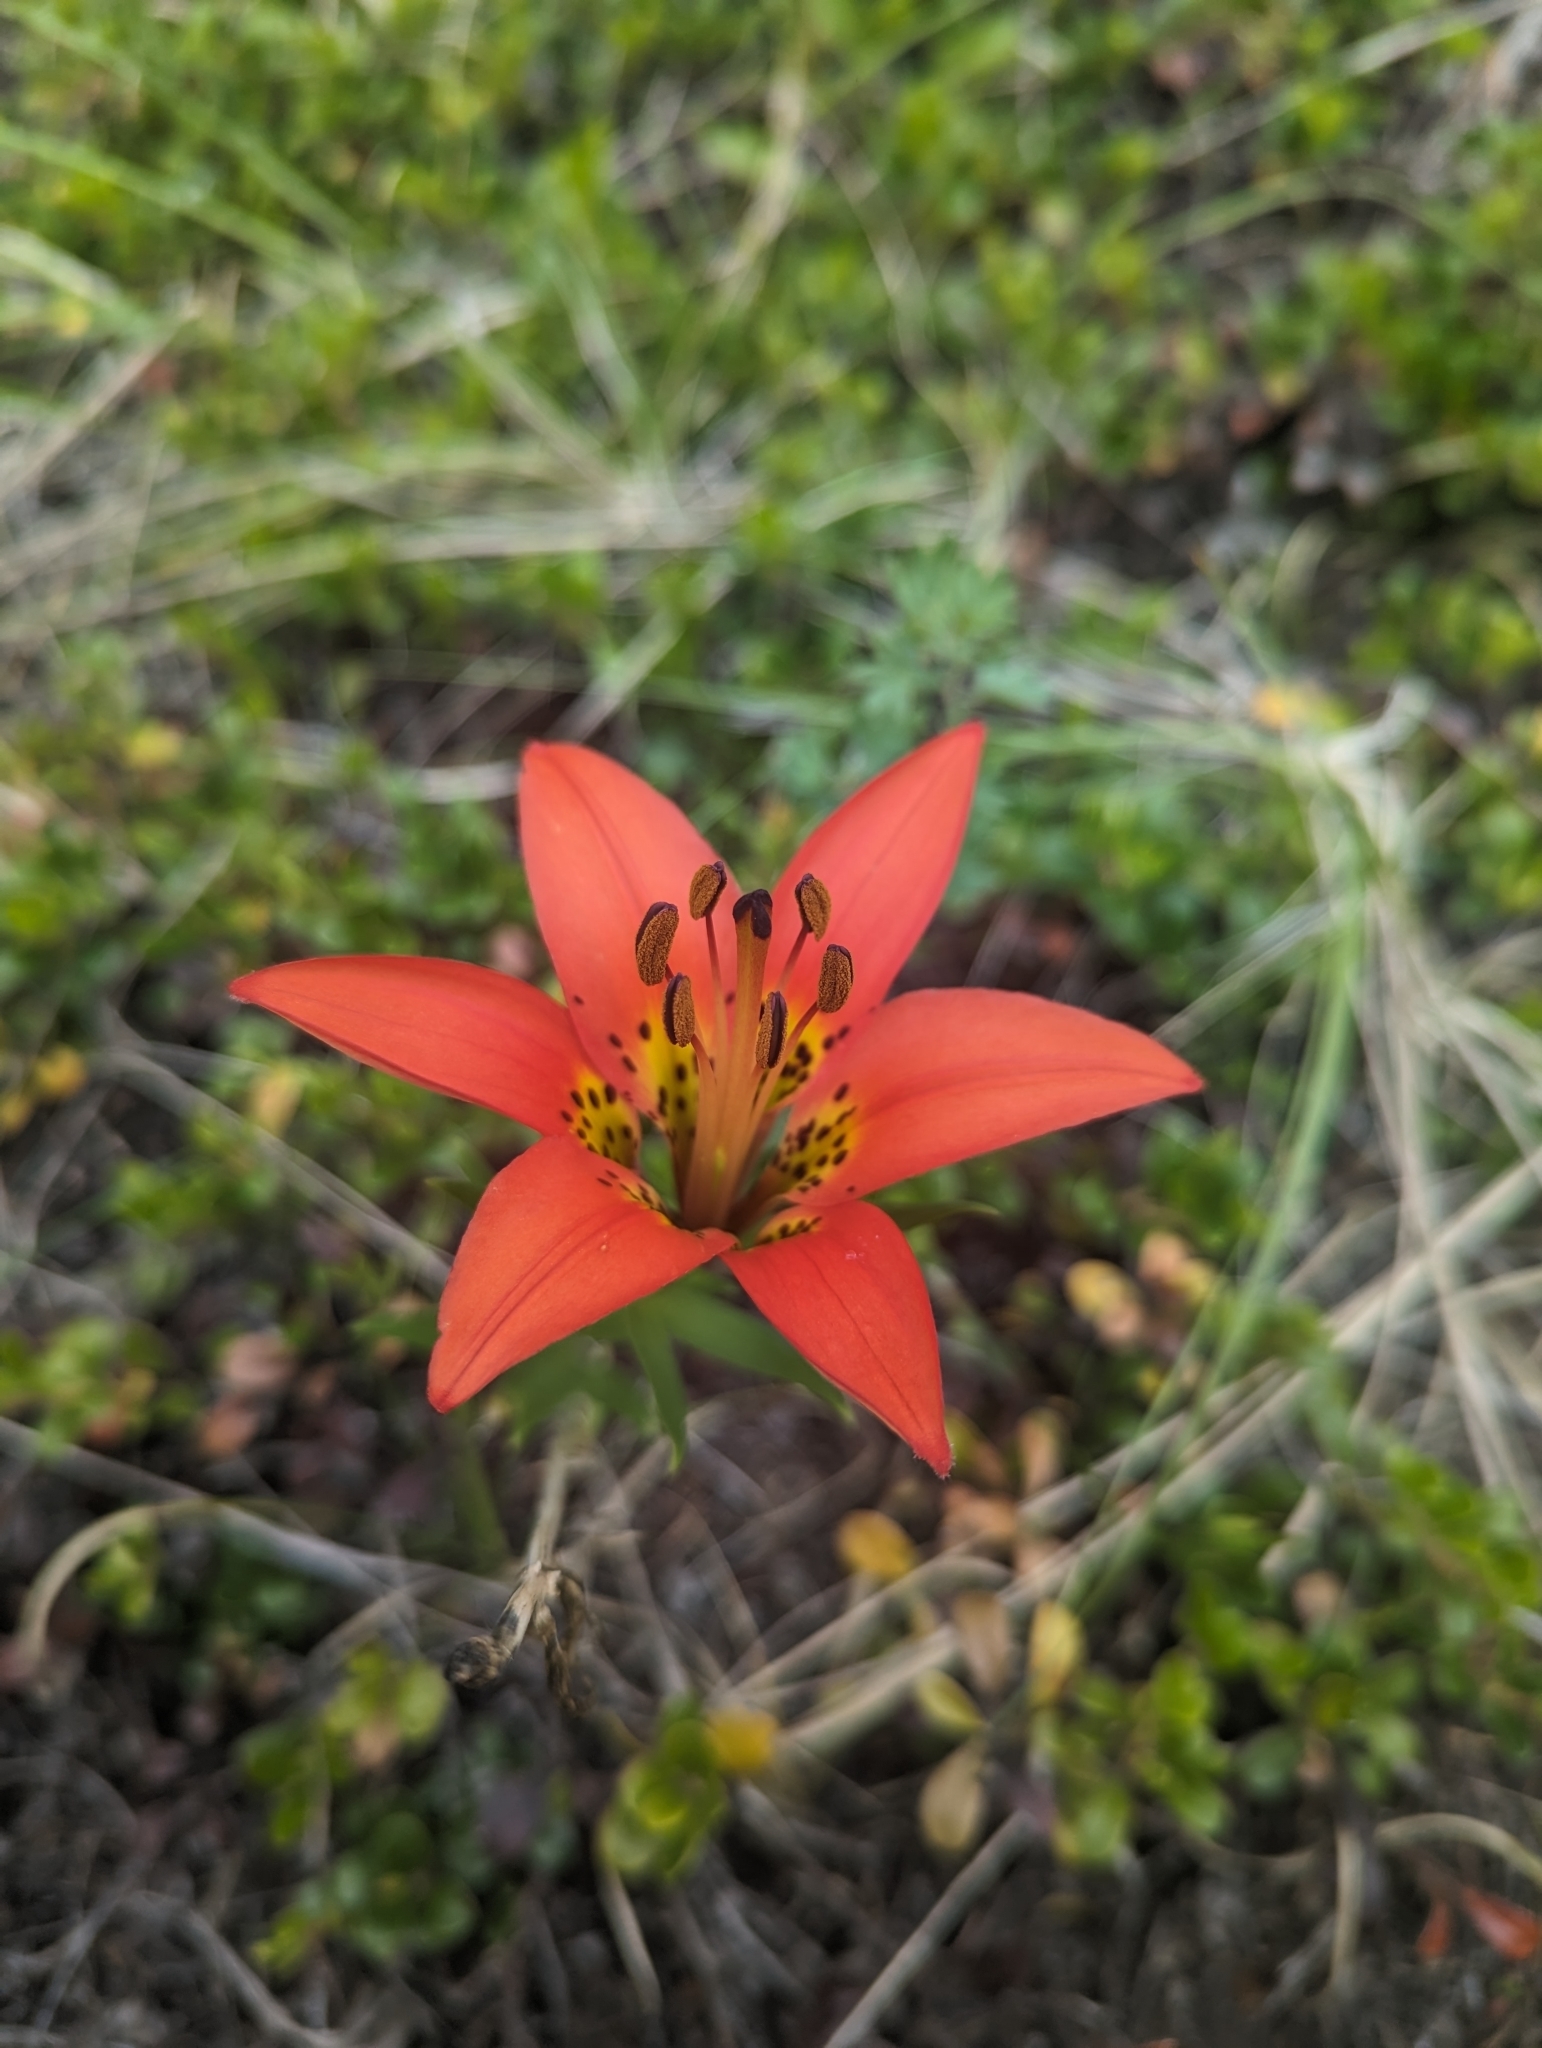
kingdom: Plantae
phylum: Tracheophyta
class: Liliopsida
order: Liliales
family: Liliaceae
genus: Lilium
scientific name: Lilium philadelphicum
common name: Red lily
